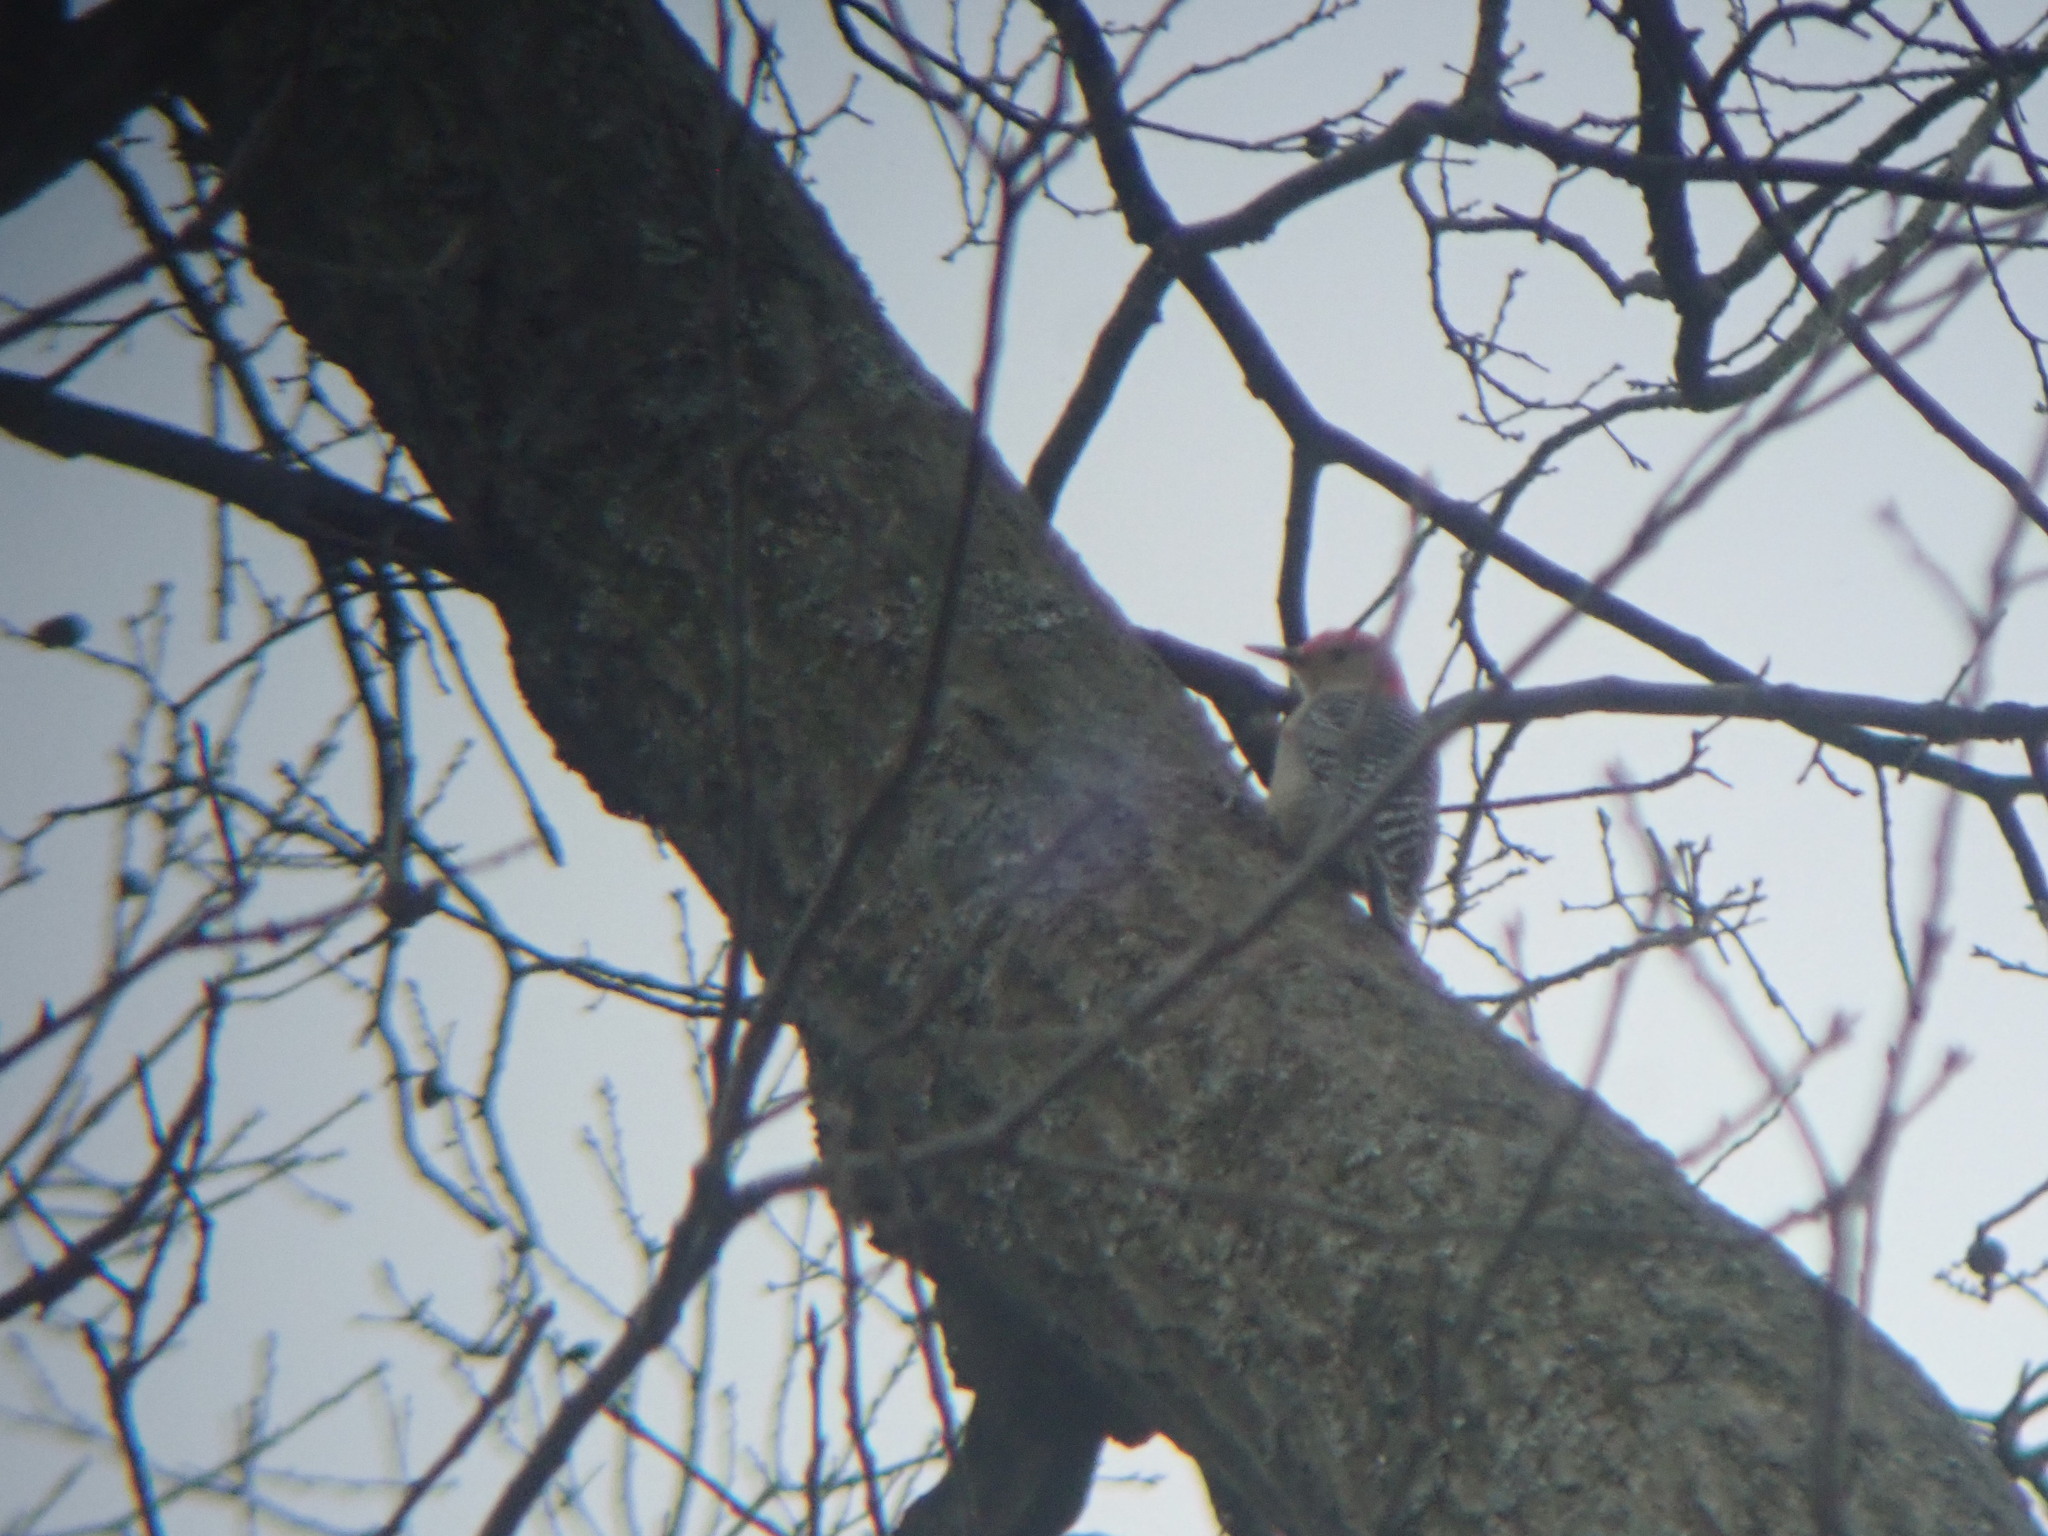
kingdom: Animalia
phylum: Chordata
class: Aves
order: Piciformes
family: Picidae
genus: Melanerpes
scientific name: Melanerpes carolinus
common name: Red-bellied woodpecker
